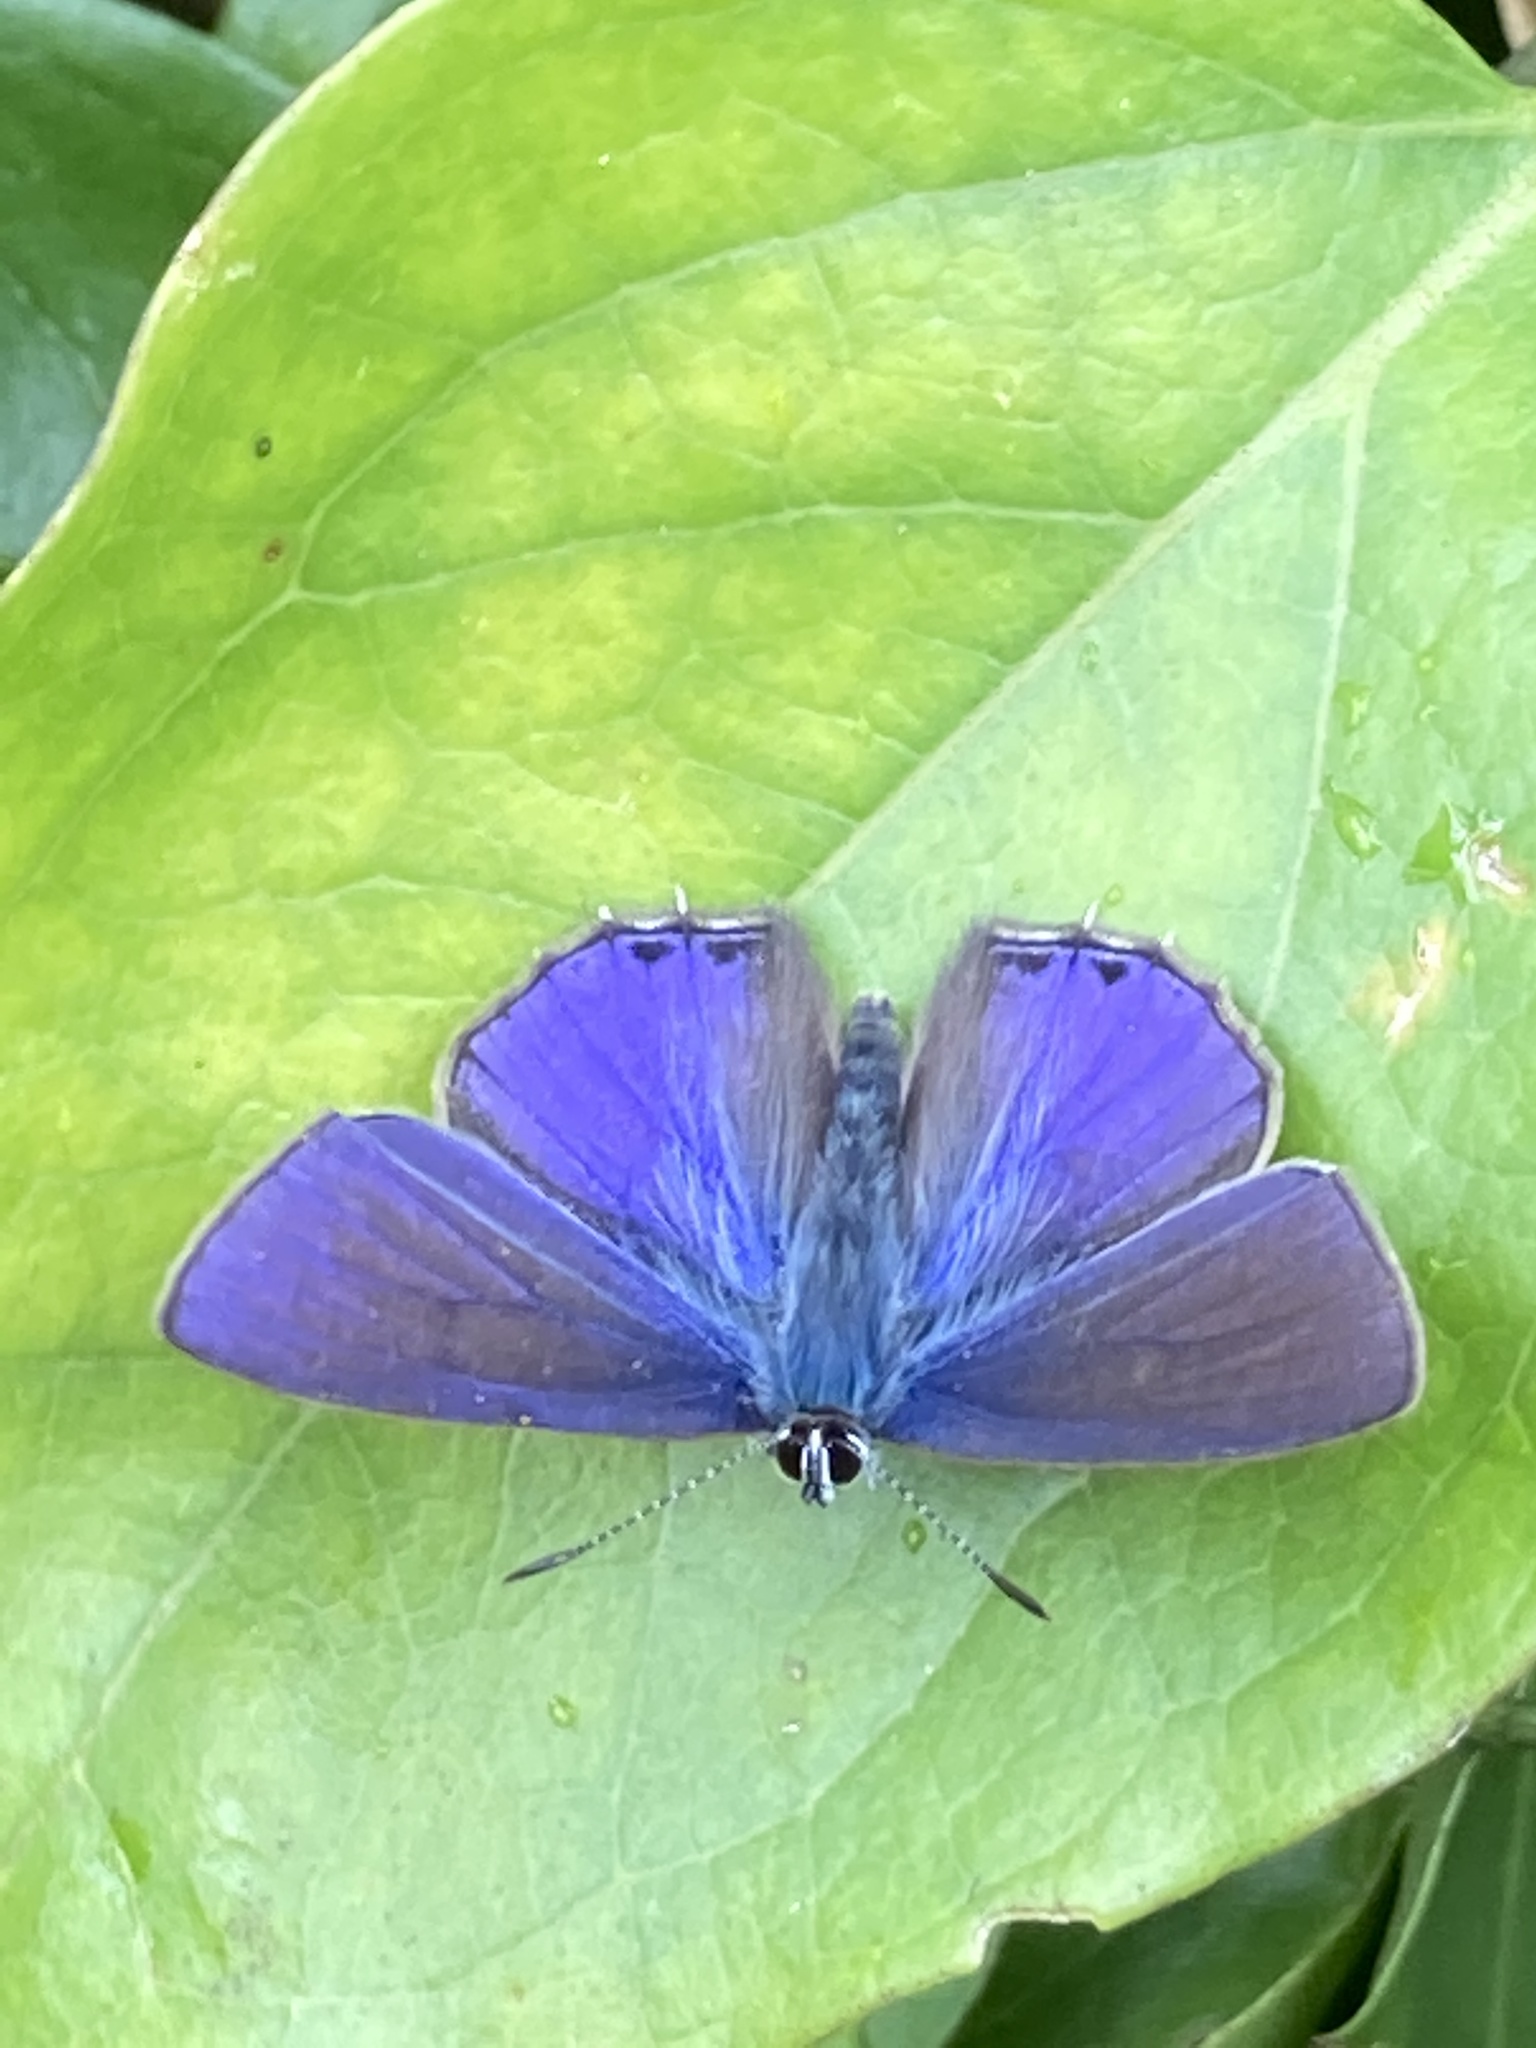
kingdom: Animalia
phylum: Arthropoda
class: Insecta
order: Lepidoptera
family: Lycaenidae
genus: Anthene
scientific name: Anthene seltuttus
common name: Dark ciliated-blue
